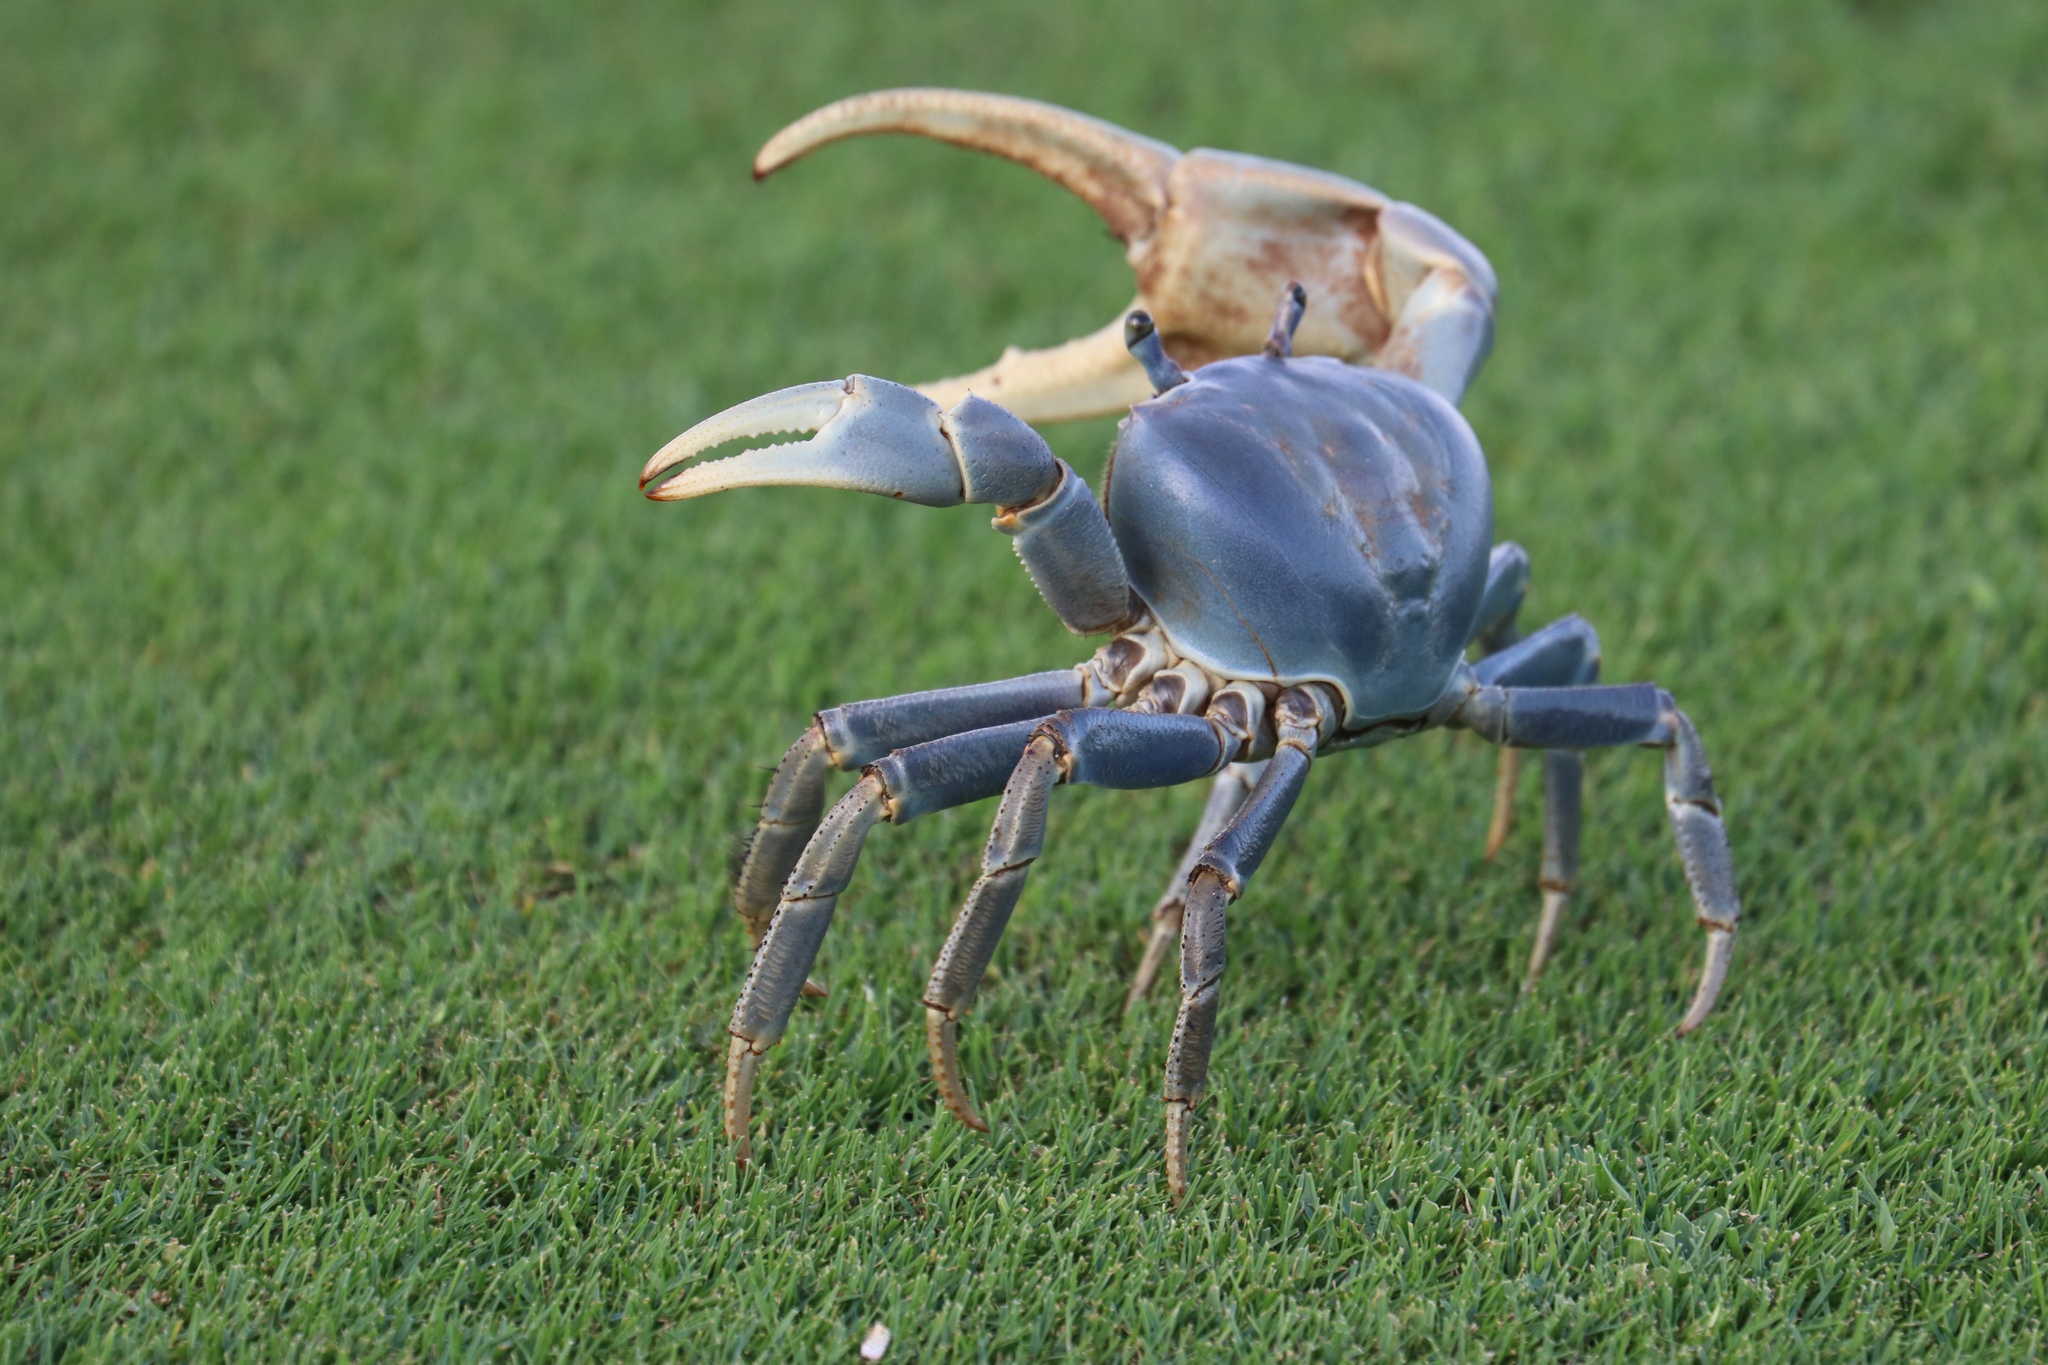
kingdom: Animalia
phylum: Arthropoda
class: Malacostraca
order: Decapoda
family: Gecarcinidae
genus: Cardisoma
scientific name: Cardisoma guanhumi
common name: Great land crab
